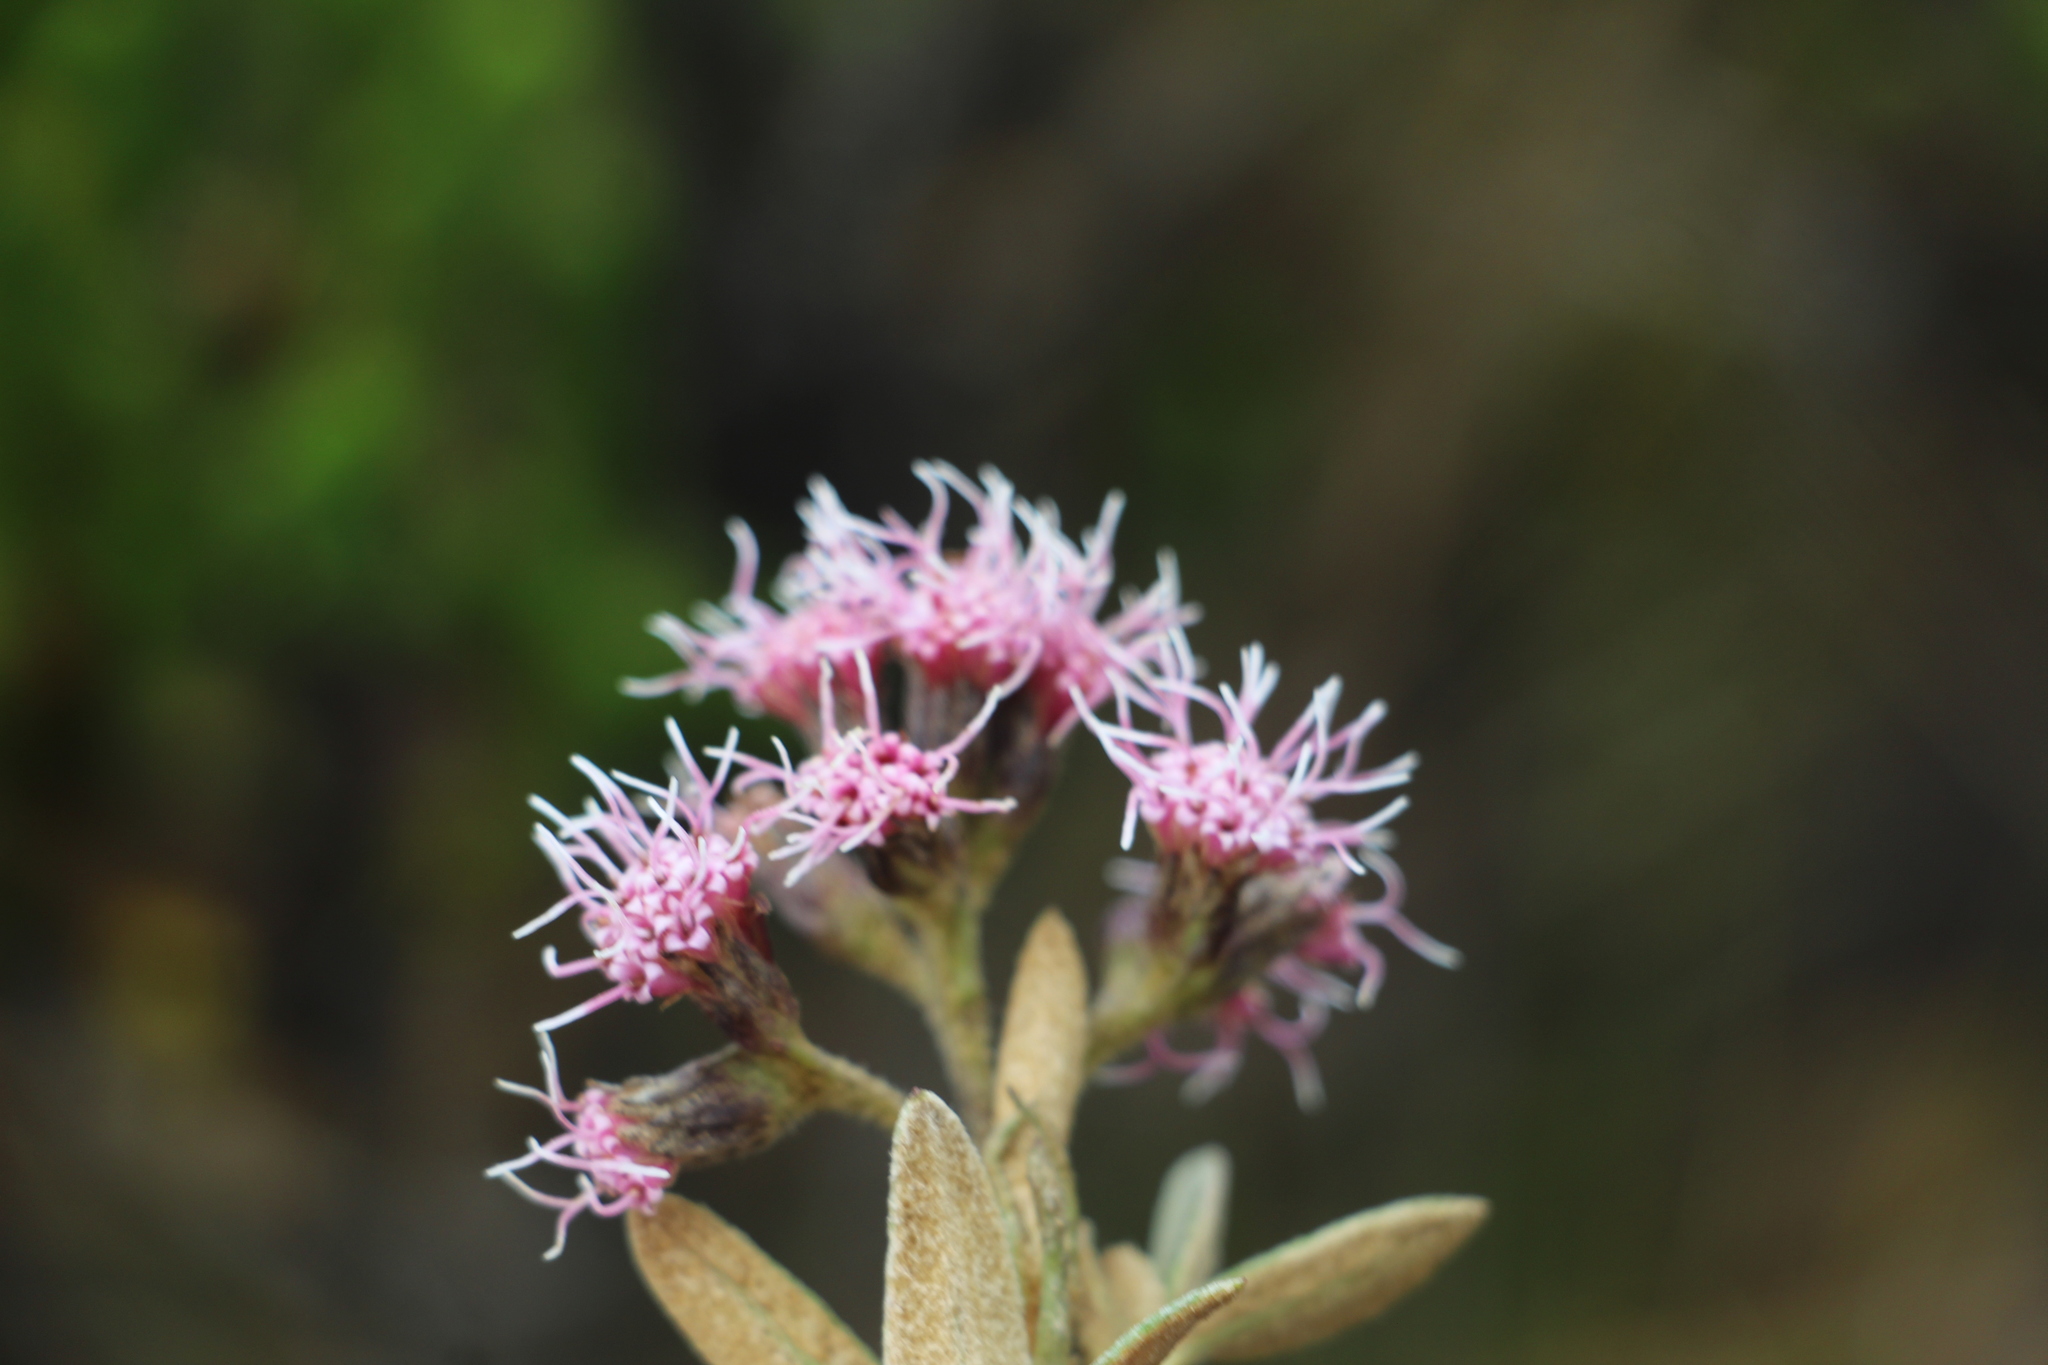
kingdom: Plantae
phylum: Tracheophyta
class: Magnoliopsida
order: Asterales
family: Asteraceae
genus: Ageratina
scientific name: Ageratina gynoxoides
